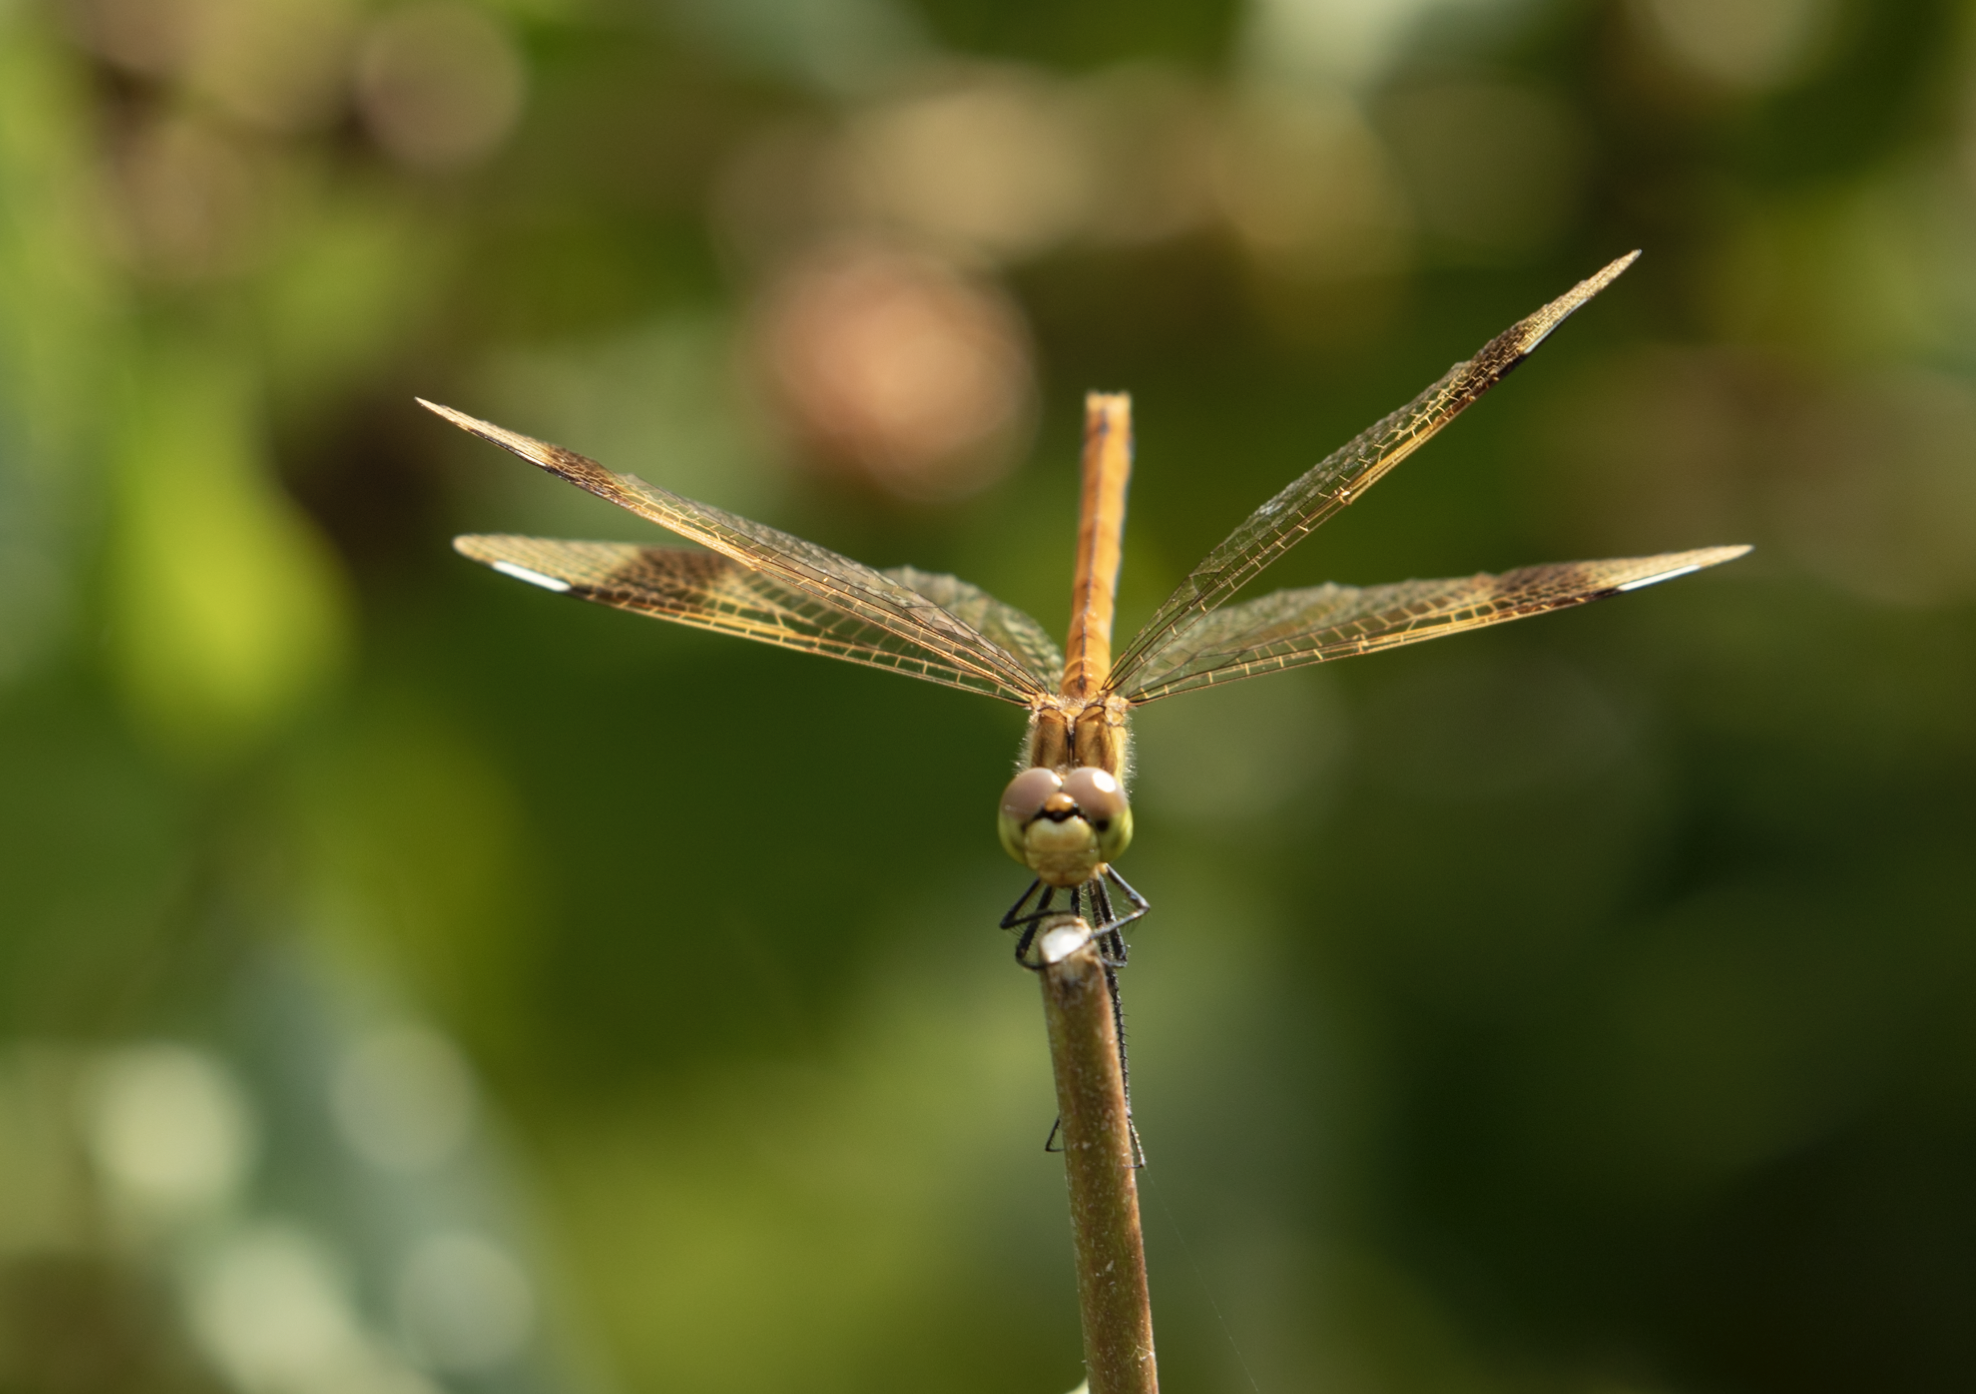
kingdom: Animalia
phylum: Arthropoda
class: Insecta
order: Odonata
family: Libellulidae
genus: Sympetrum
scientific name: Sympetrum pedemontanum
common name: Banded darter
